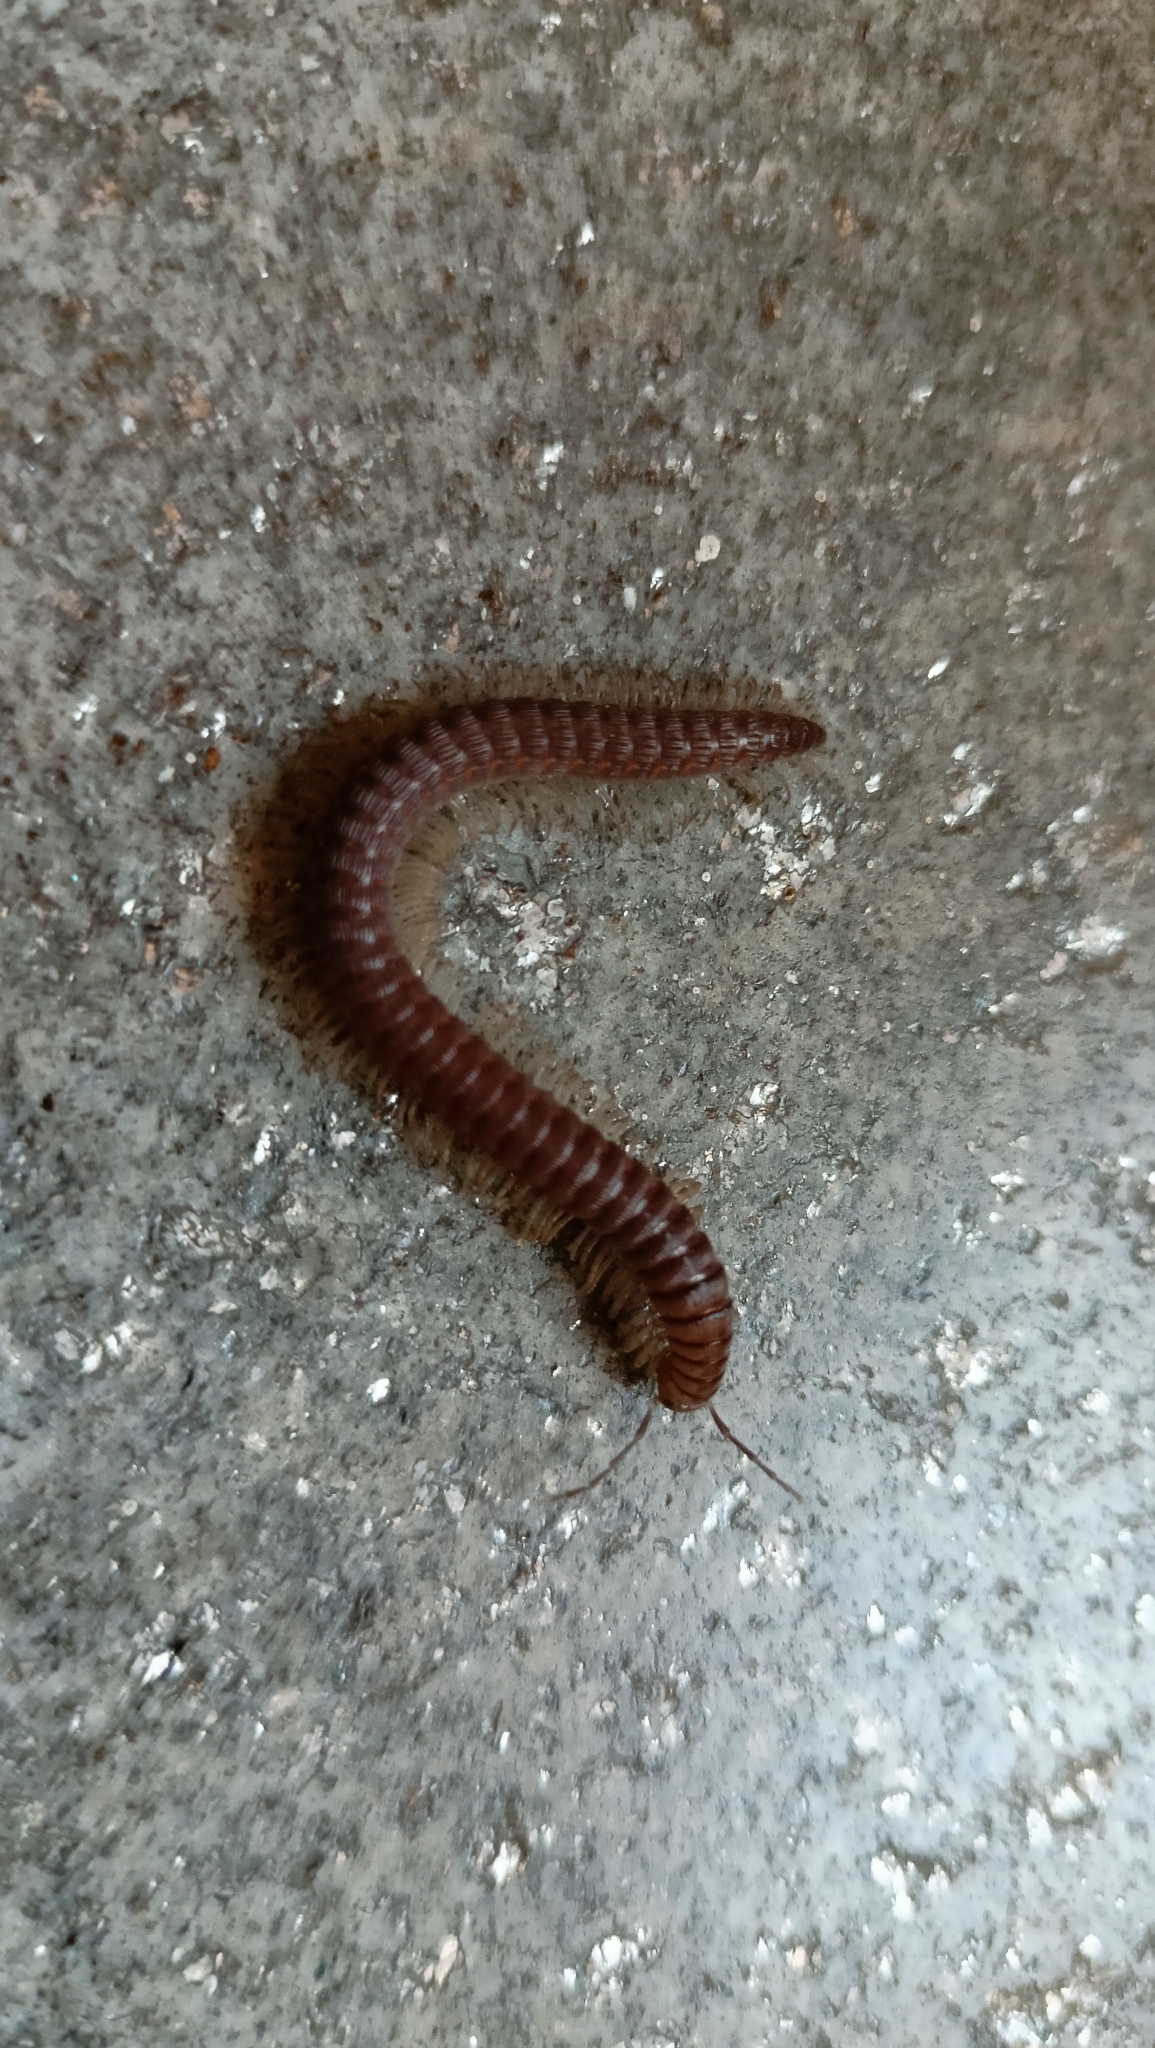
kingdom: Animalia
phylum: Arthropoda
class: Diplopoda
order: Callipodida
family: Callipodidae
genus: Callipus
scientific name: Callipus foetidissimus
